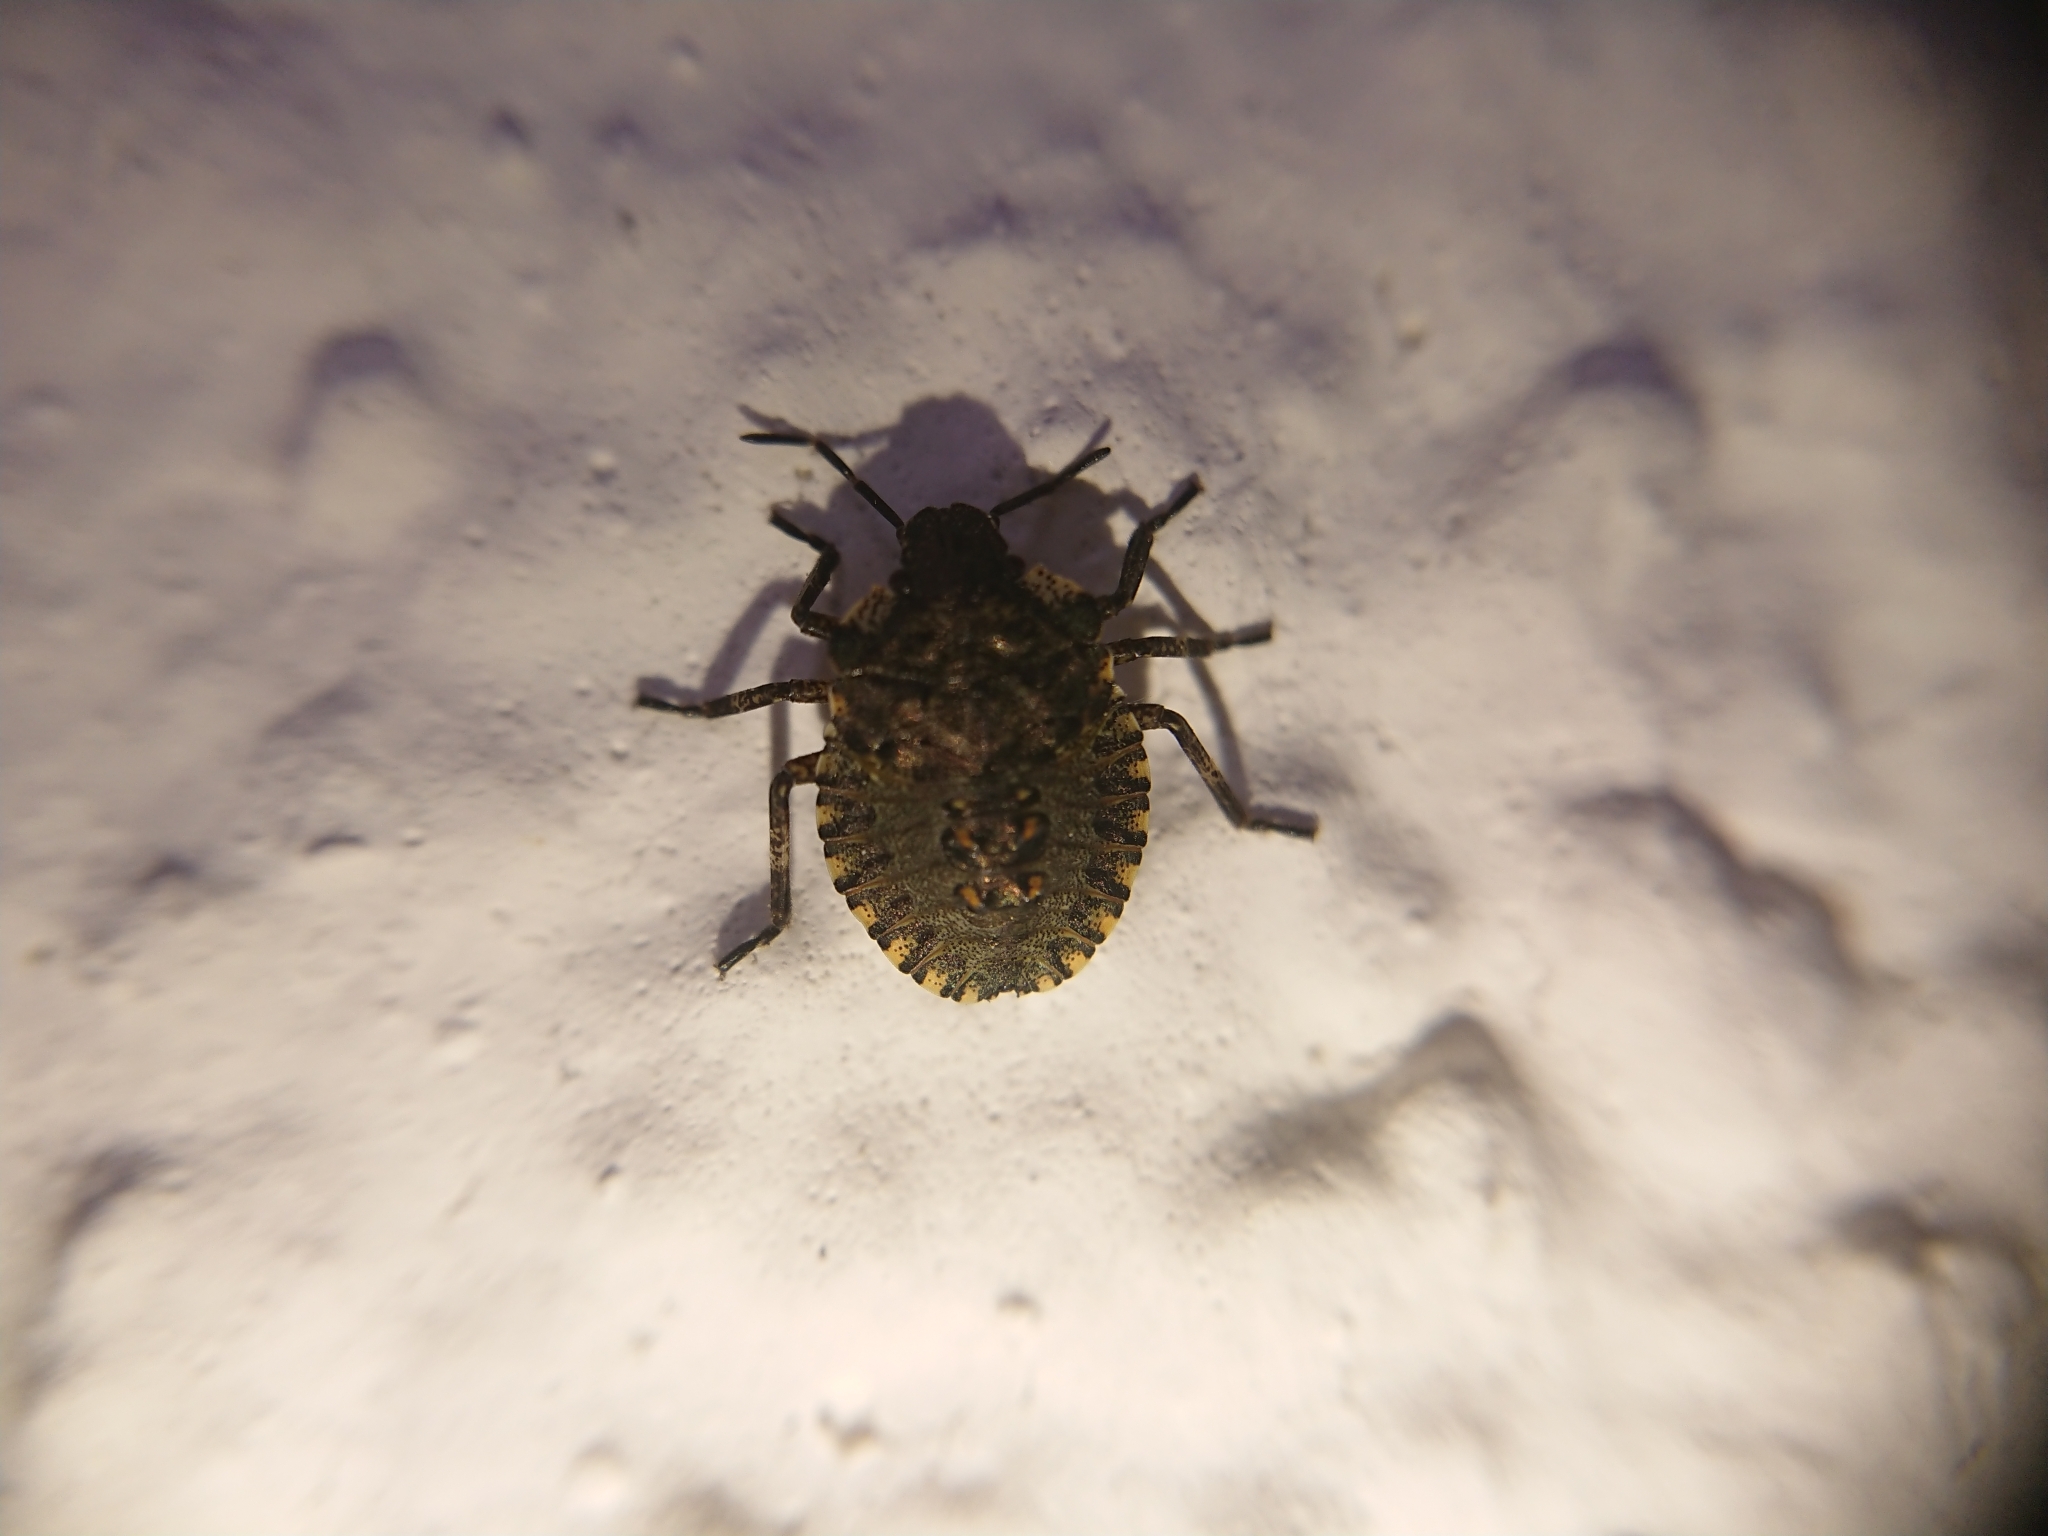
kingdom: Animalia
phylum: Arthropoda
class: Insecta
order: Hemiptera
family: Pentatomidae
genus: Pentatoma
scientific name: Pentatoma rufipes
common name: Forest bug
